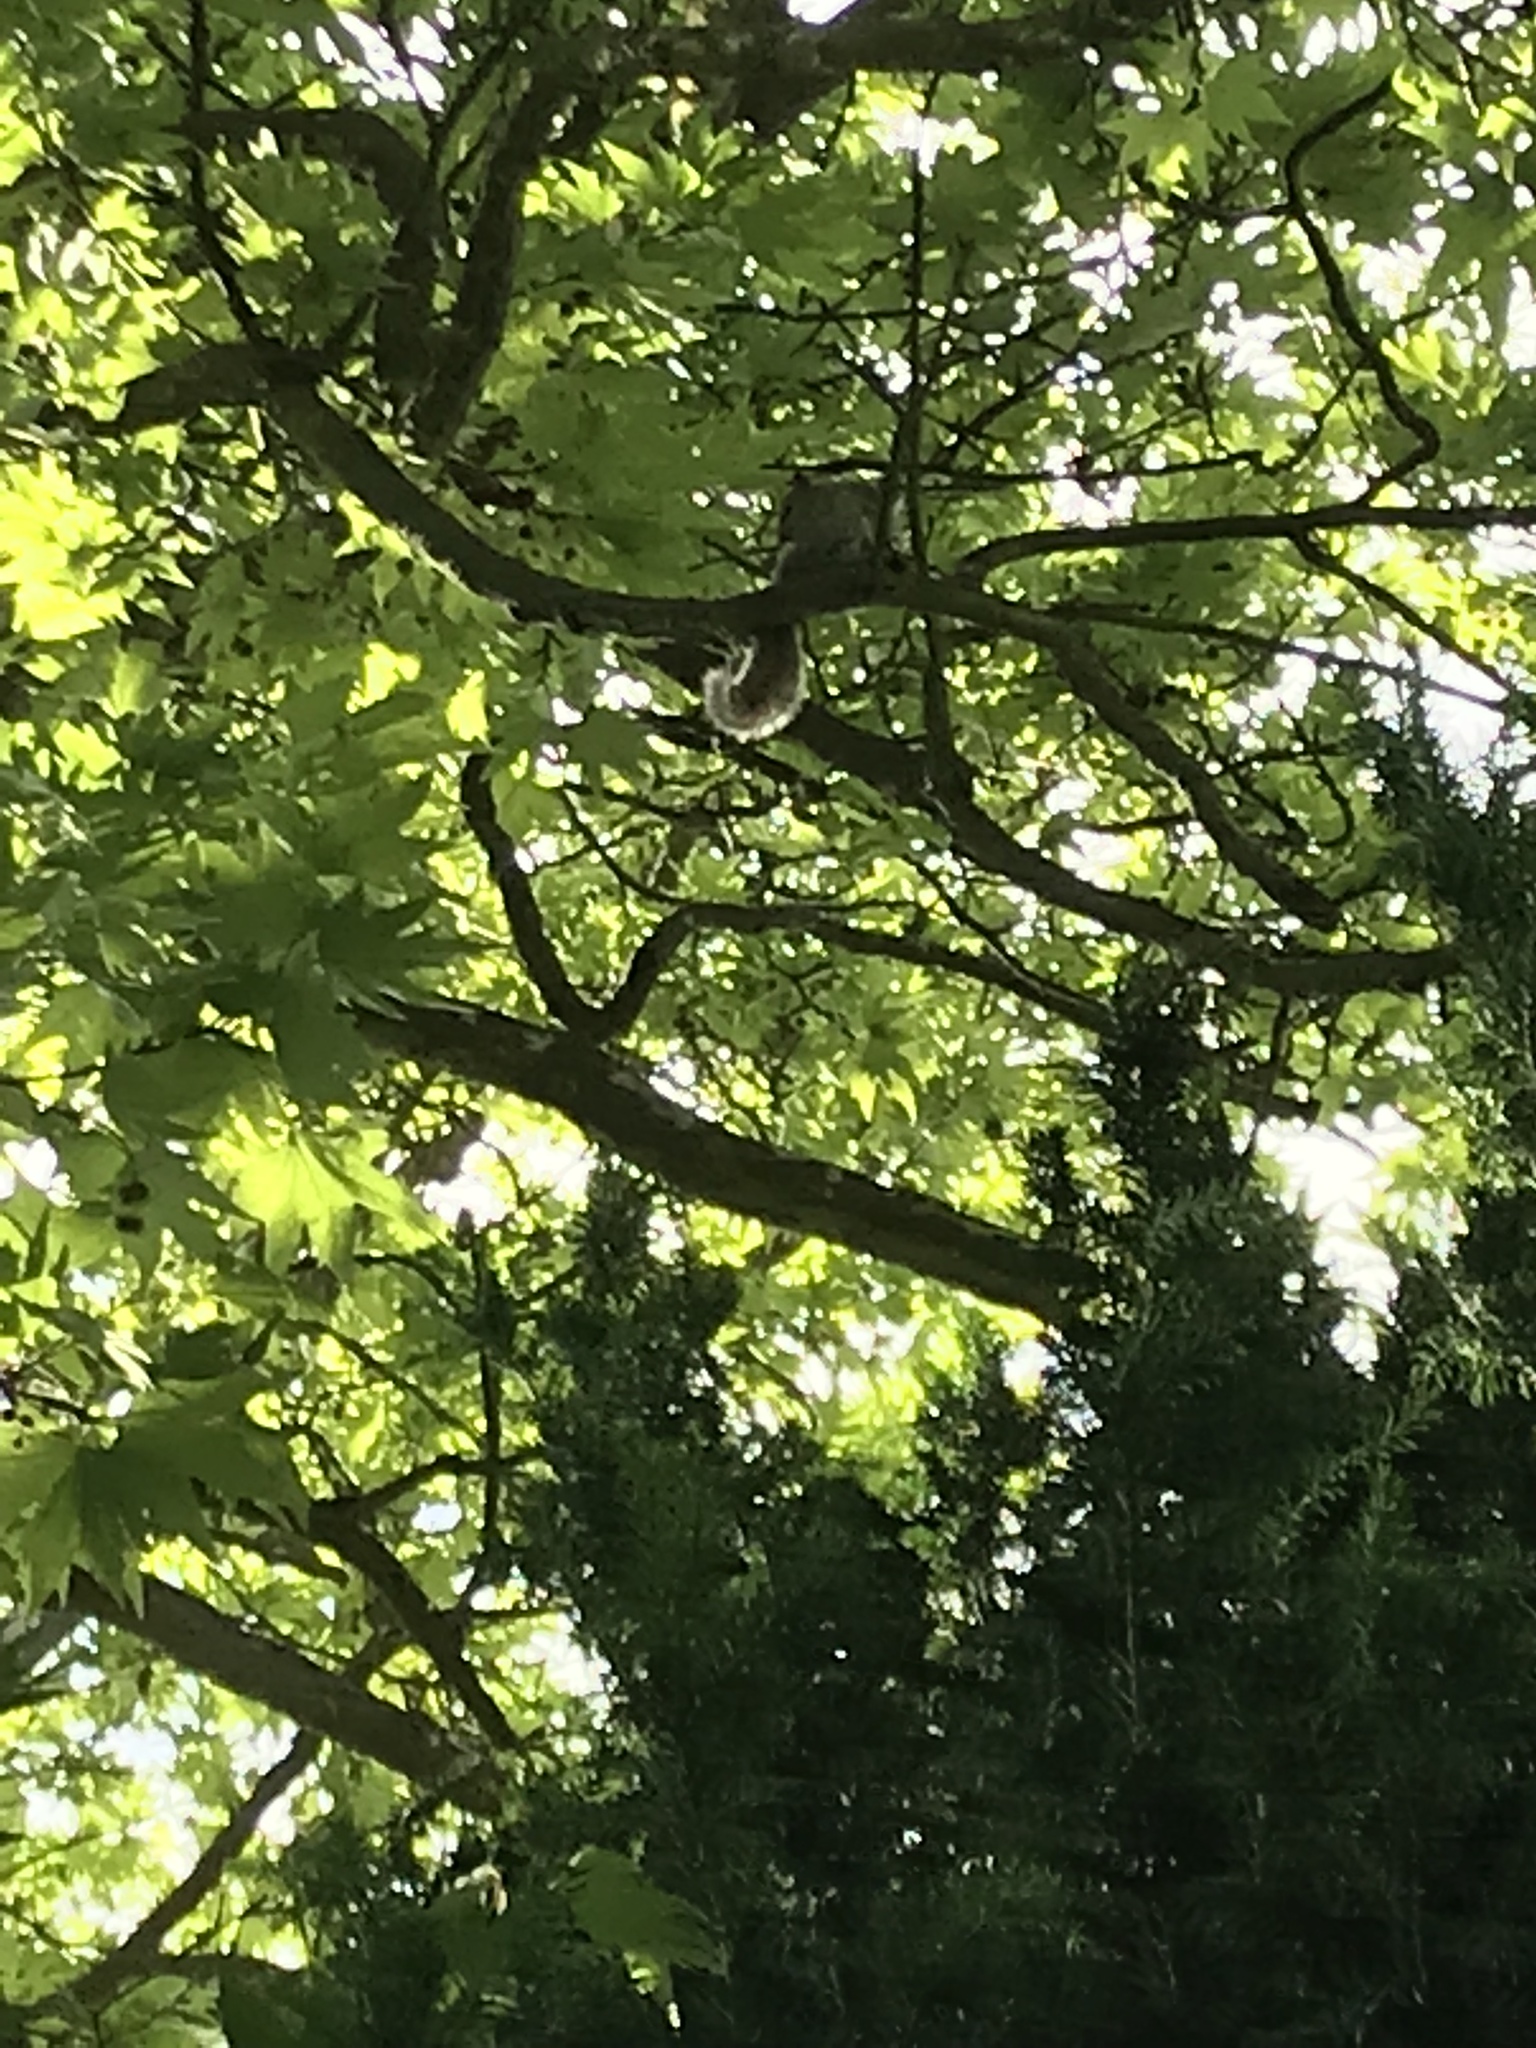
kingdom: Animalia
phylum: Chordata
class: Mammalia
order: Rodentia
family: Sciuridae
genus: Sciurus
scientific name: Sciurus carolinensis
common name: Eastern gray squirrel
